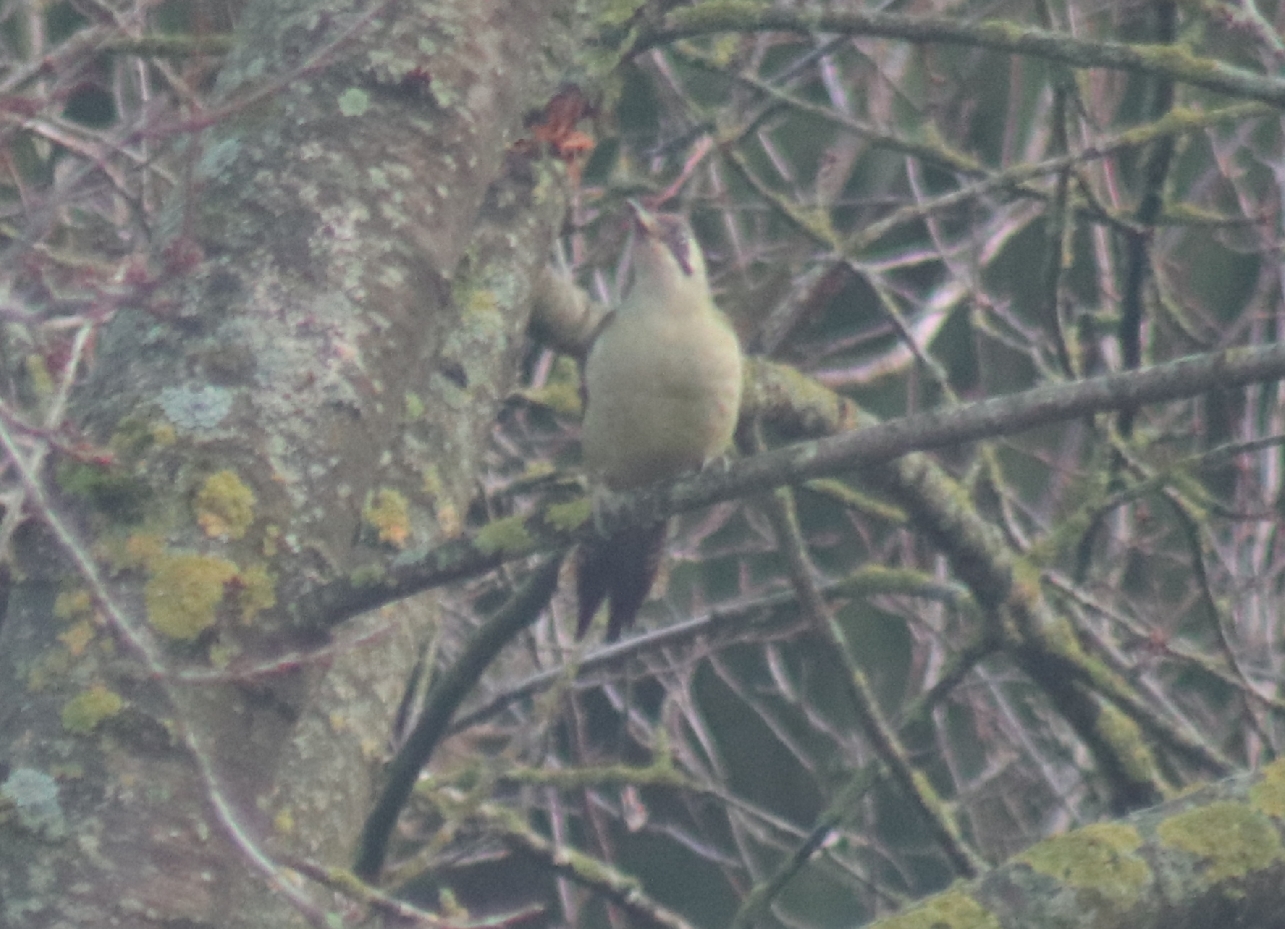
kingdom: Animalia
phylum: Chordata
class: Aves
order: Piciformes
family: Picidae
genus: Picus
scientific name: Picus viridis
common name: European green woodpecker
